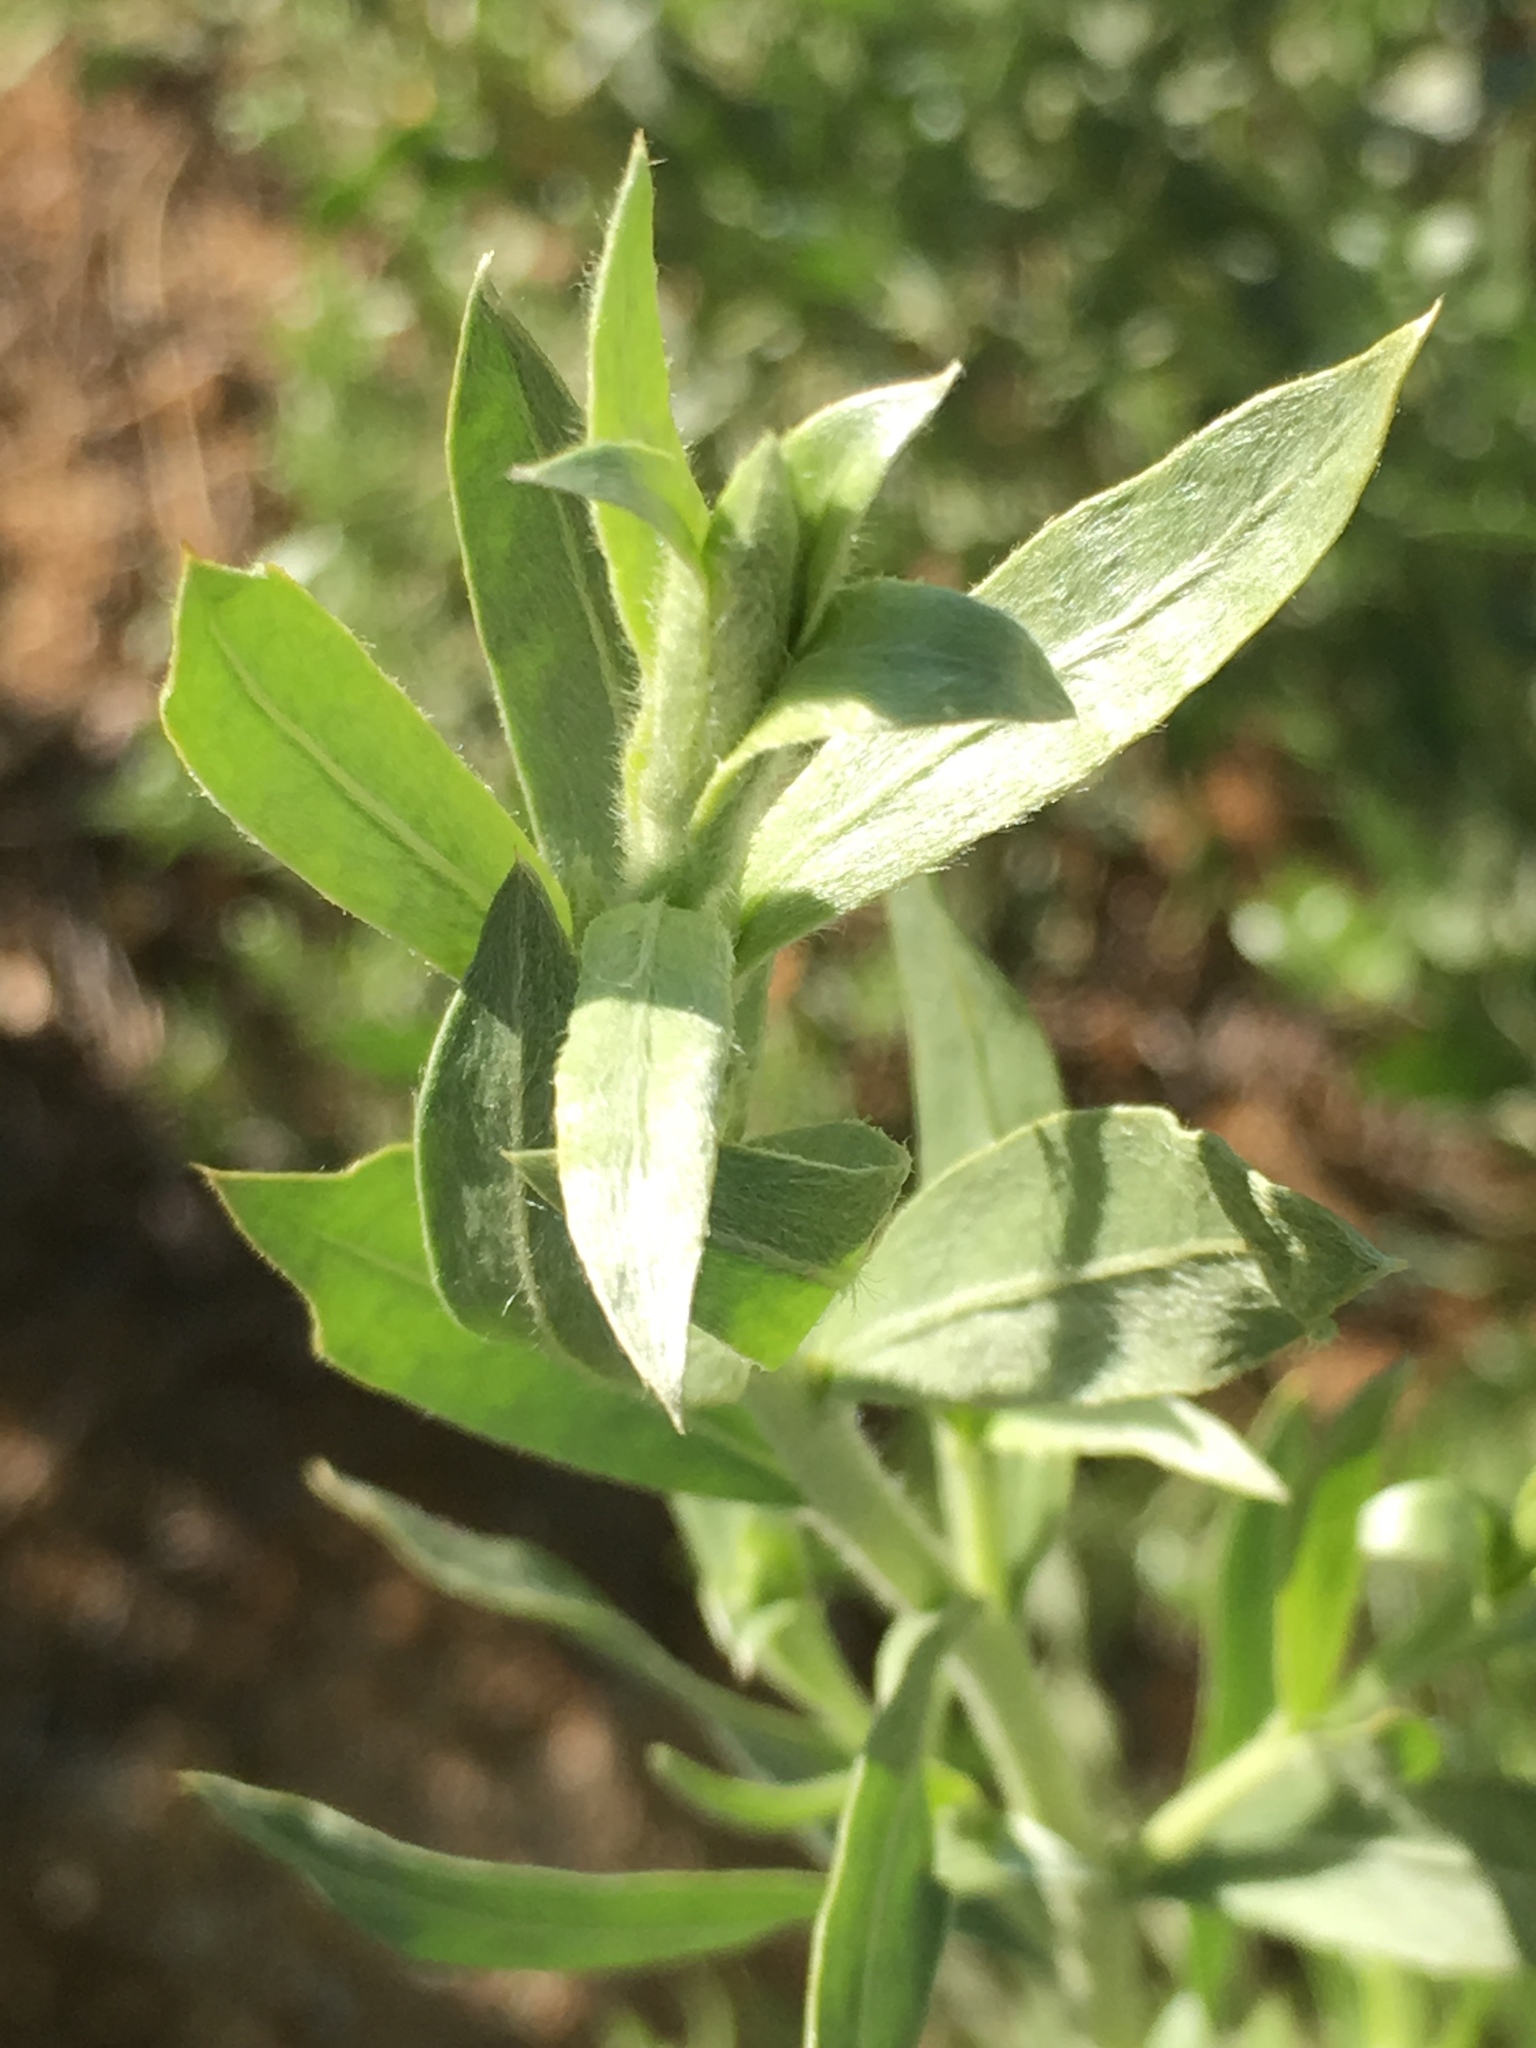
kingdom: Plantae
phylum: Tracheophyta
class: Magnoliopsida
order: Asterales
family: Asteraceae
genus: Pluchea
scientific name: Pluchea sericea
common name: Arrow-weed
